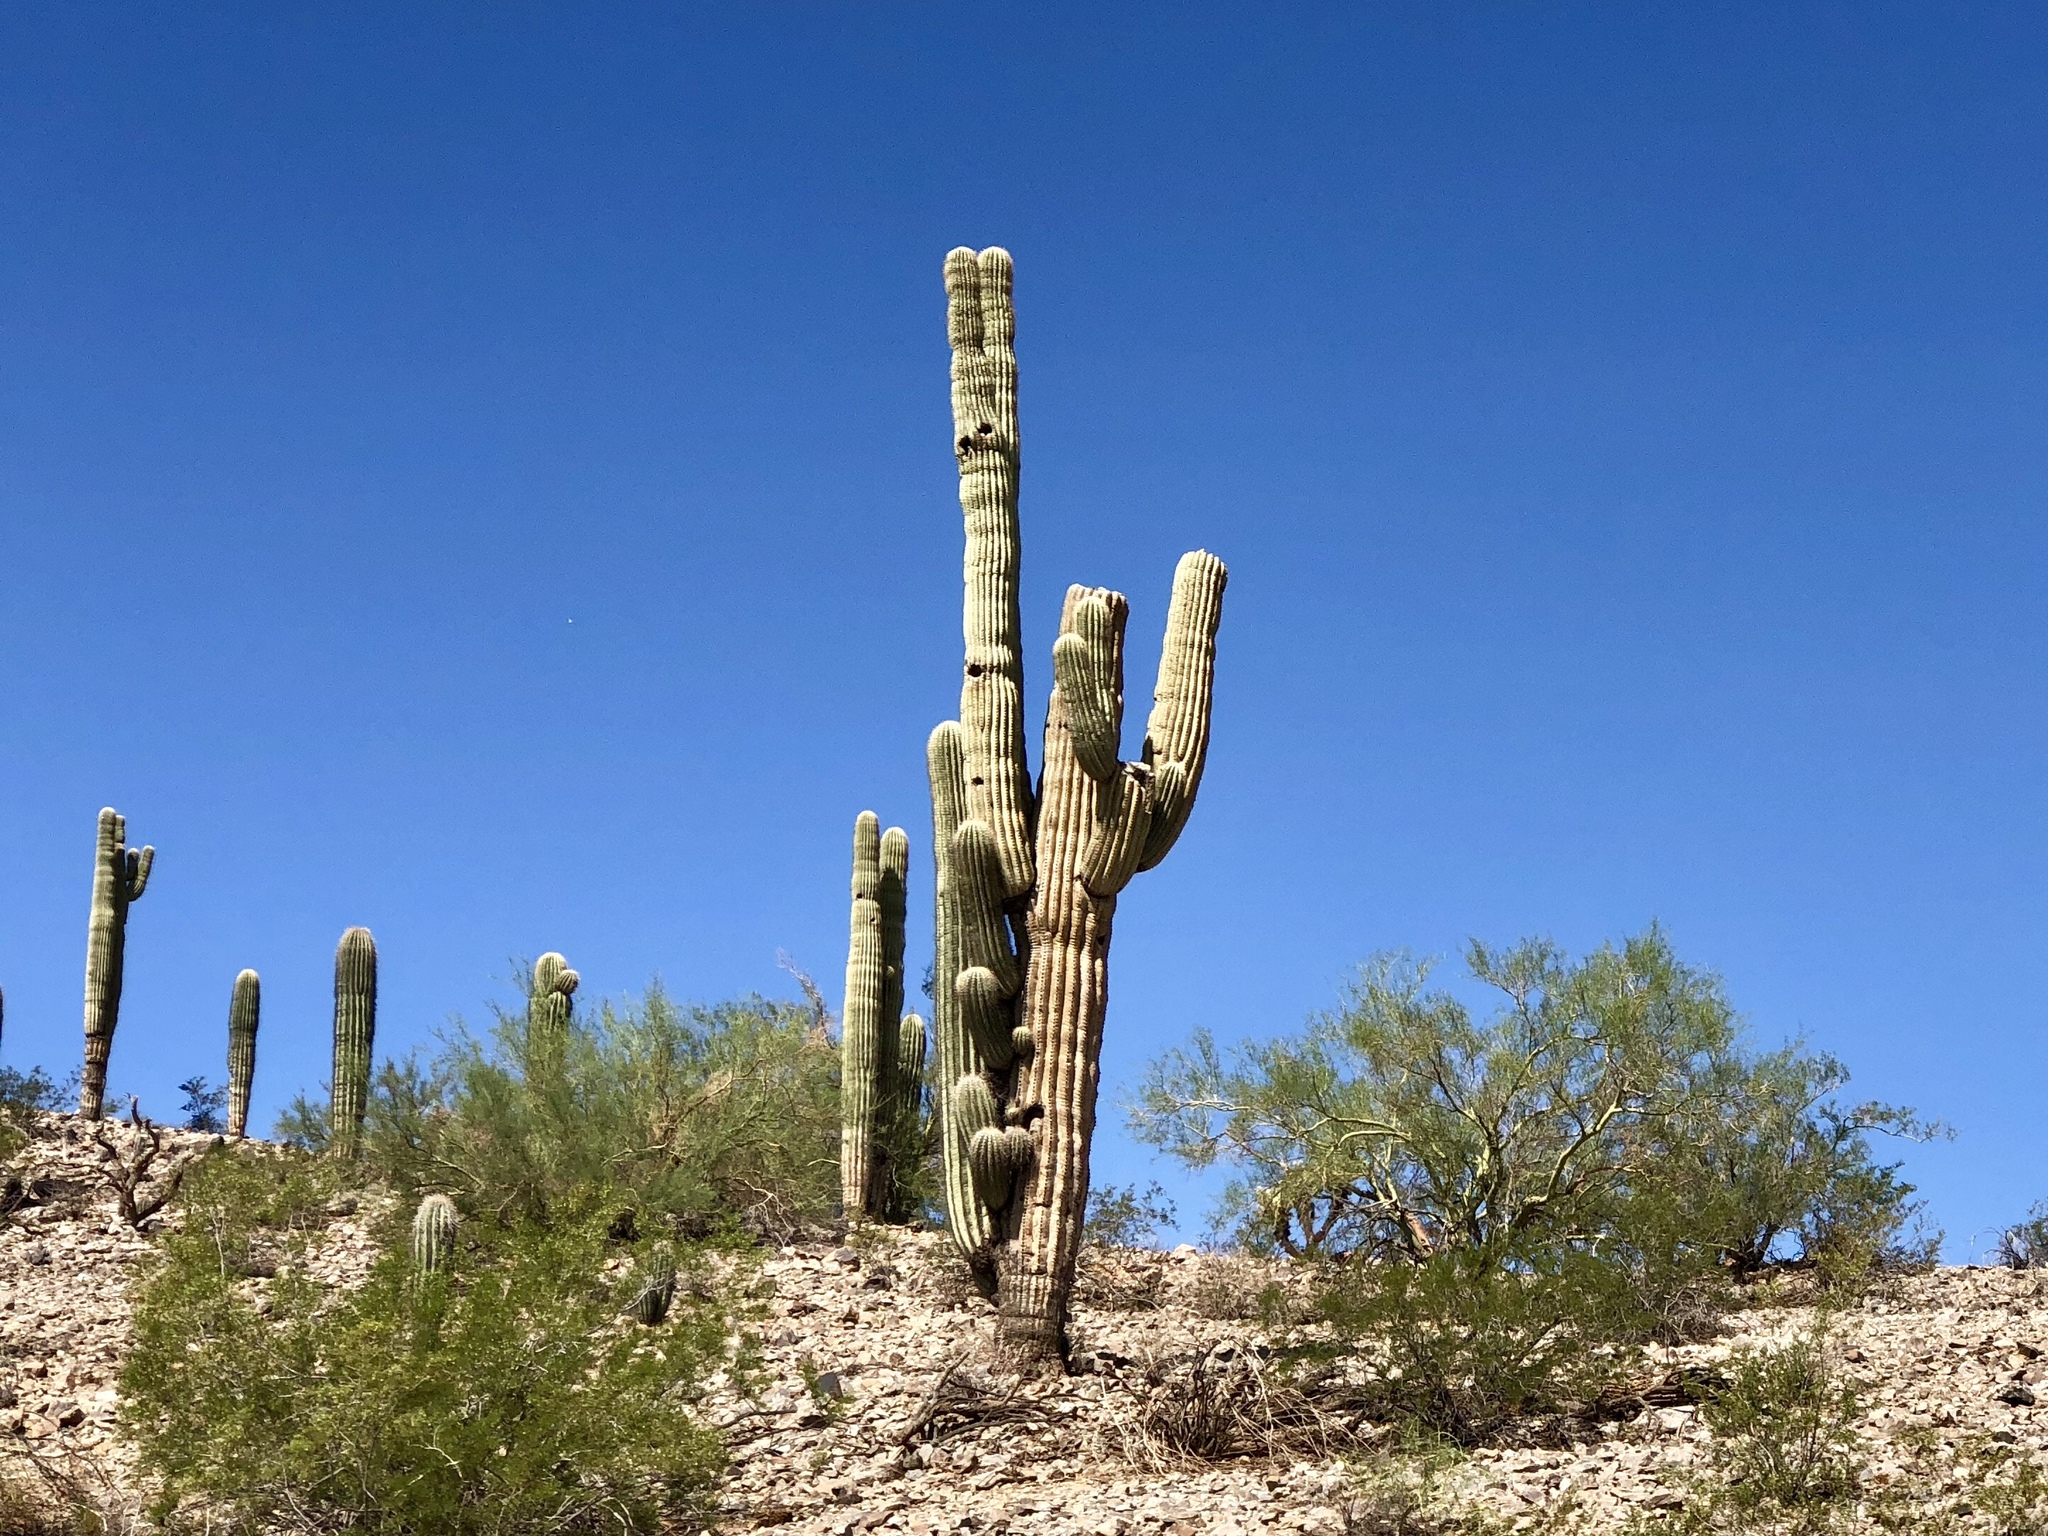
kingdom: Plantae
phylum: Tracheophyta
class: Magnoliopsida
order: Caryophyllales
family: Cactaceae
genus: Carnegiea
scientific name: Carnegiea gigantea
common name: Saguaro
